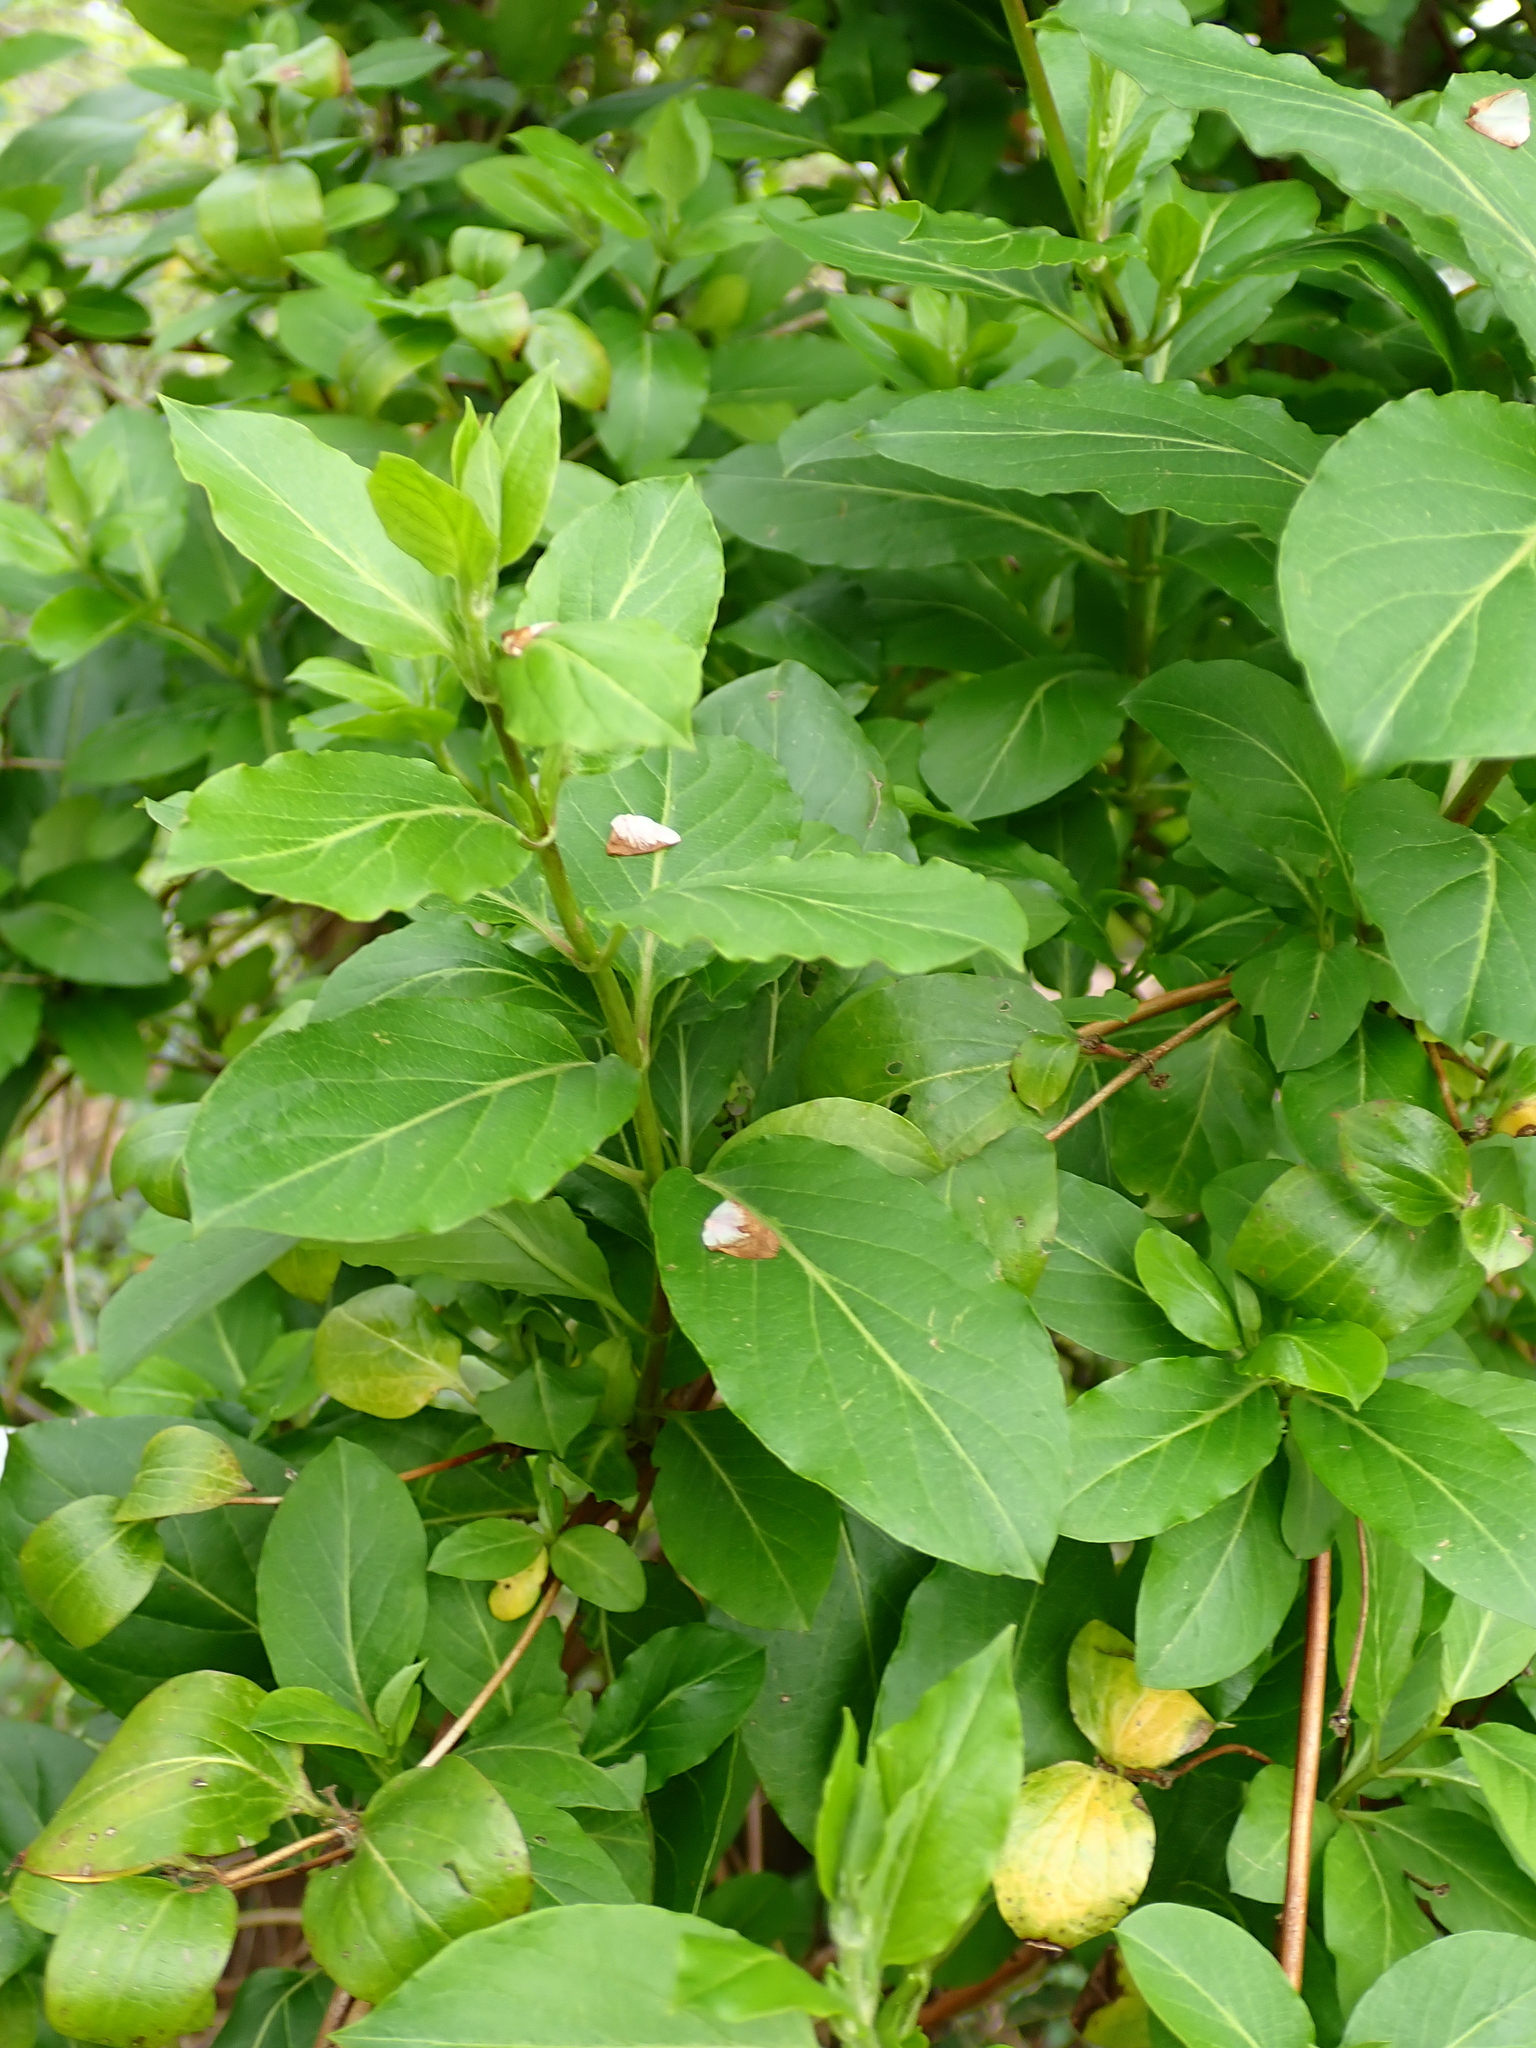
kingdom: Plantae
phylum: Tracheophyta
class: Magnoliopsida
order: Dipsacales
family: Caprifoliaceae
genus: Lonicera
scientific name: Lonicera japonica
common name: Japanese honeysuckle
